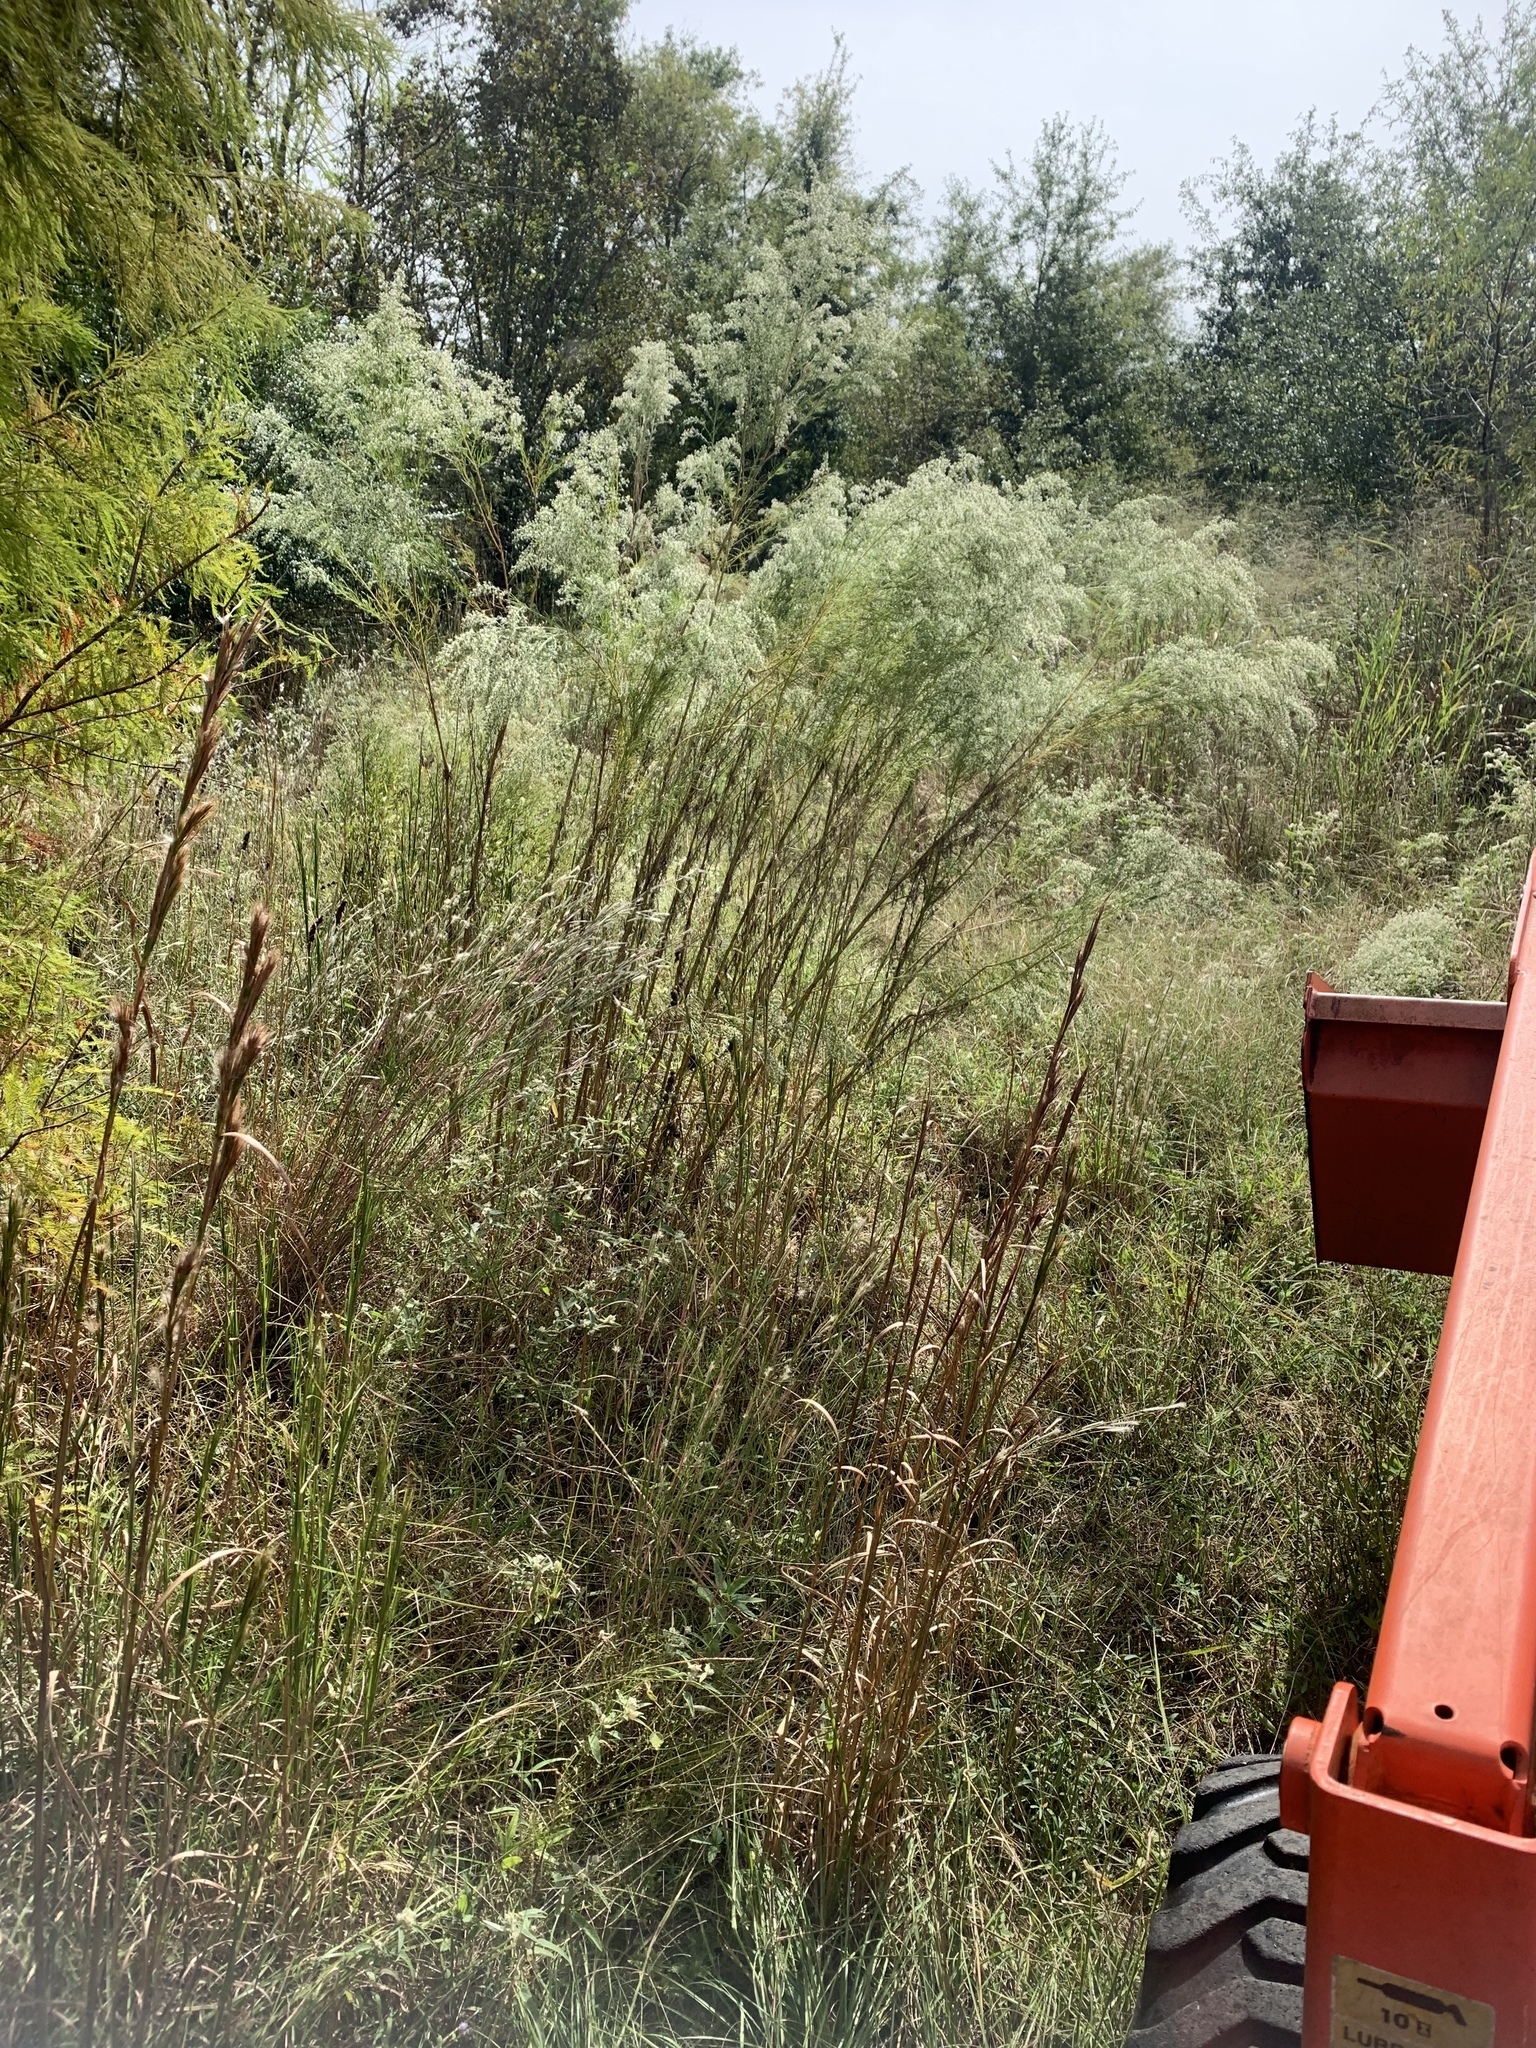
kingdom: Plantae
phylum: Tracheophyta
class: Magnoliopsida
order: Asterales
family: Asteraceae
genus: Eupatorium
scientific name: Eupatorium capillifolium
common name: Dog-fennel
